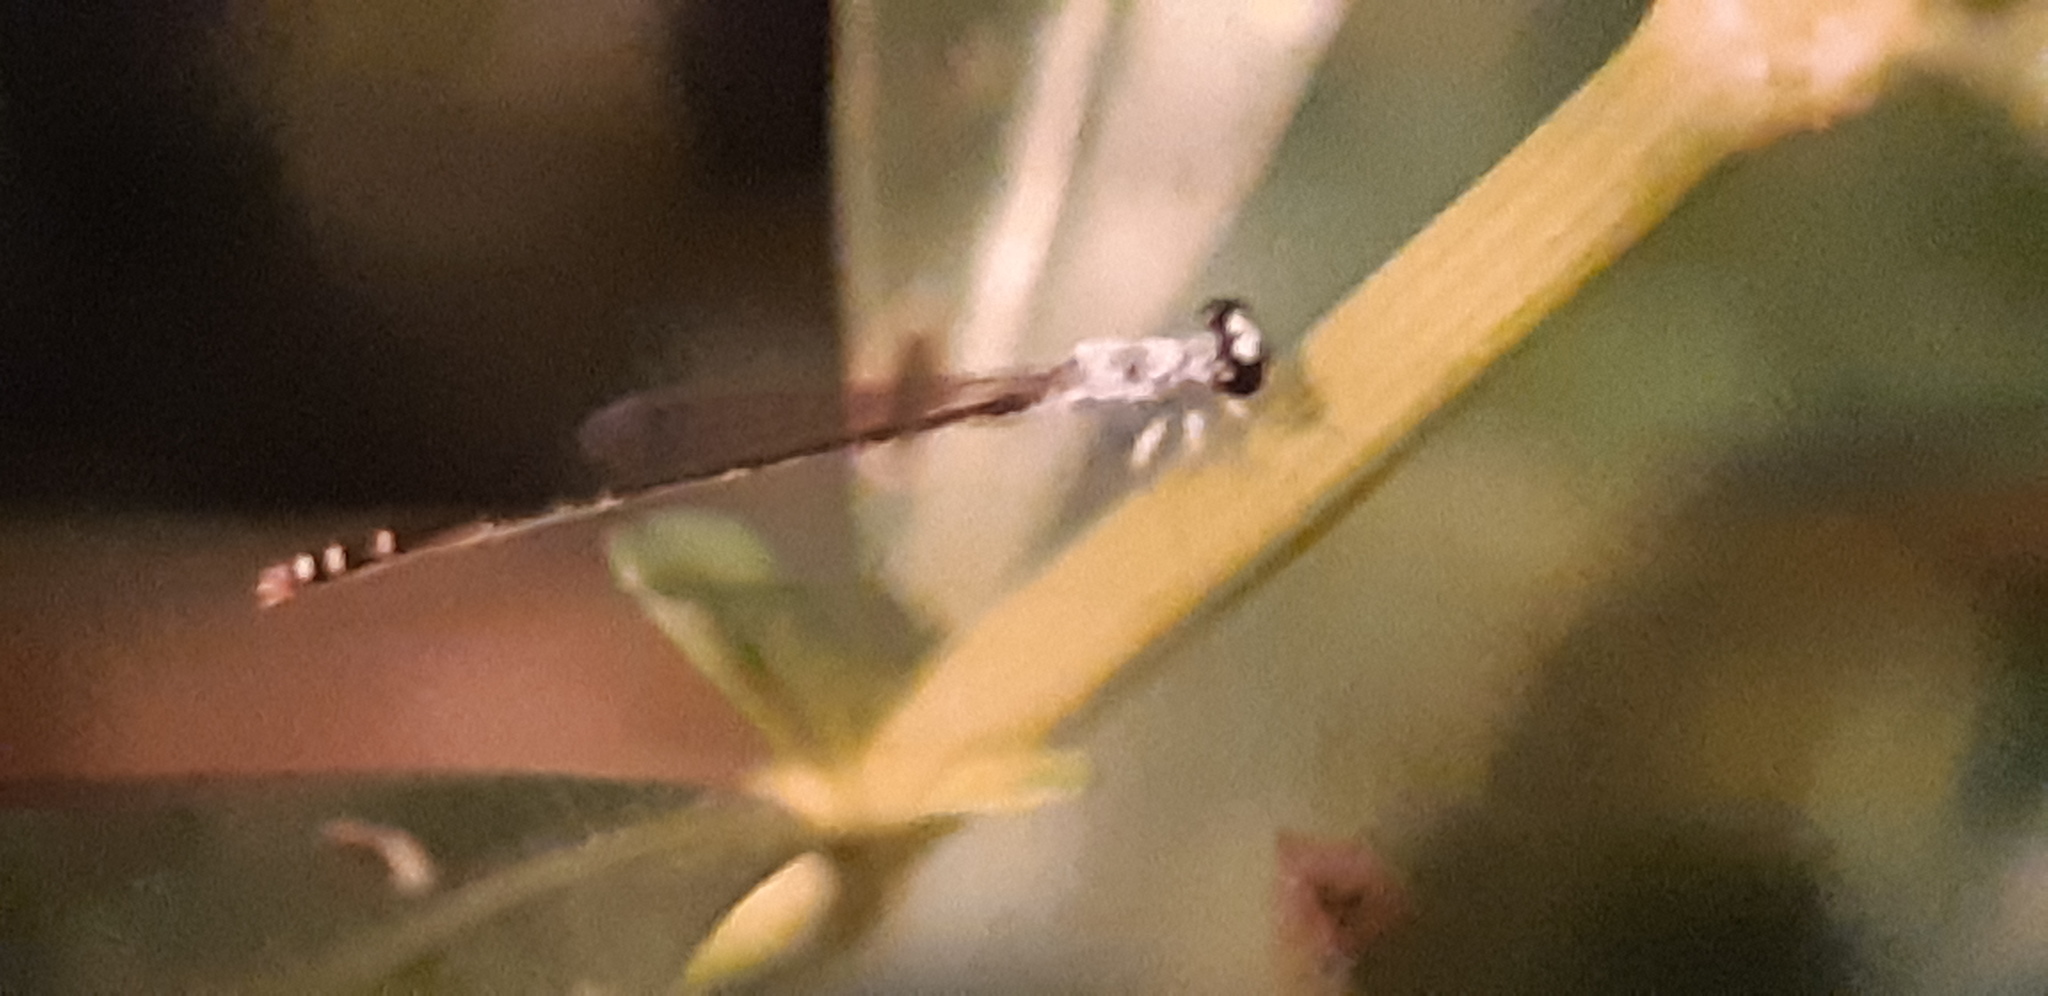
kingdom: Animalia
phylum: Arthropoda
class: Insecta
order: Odonata
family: Coenagrionidae
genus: Agriocnemis
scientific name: Agriocnemis femina
